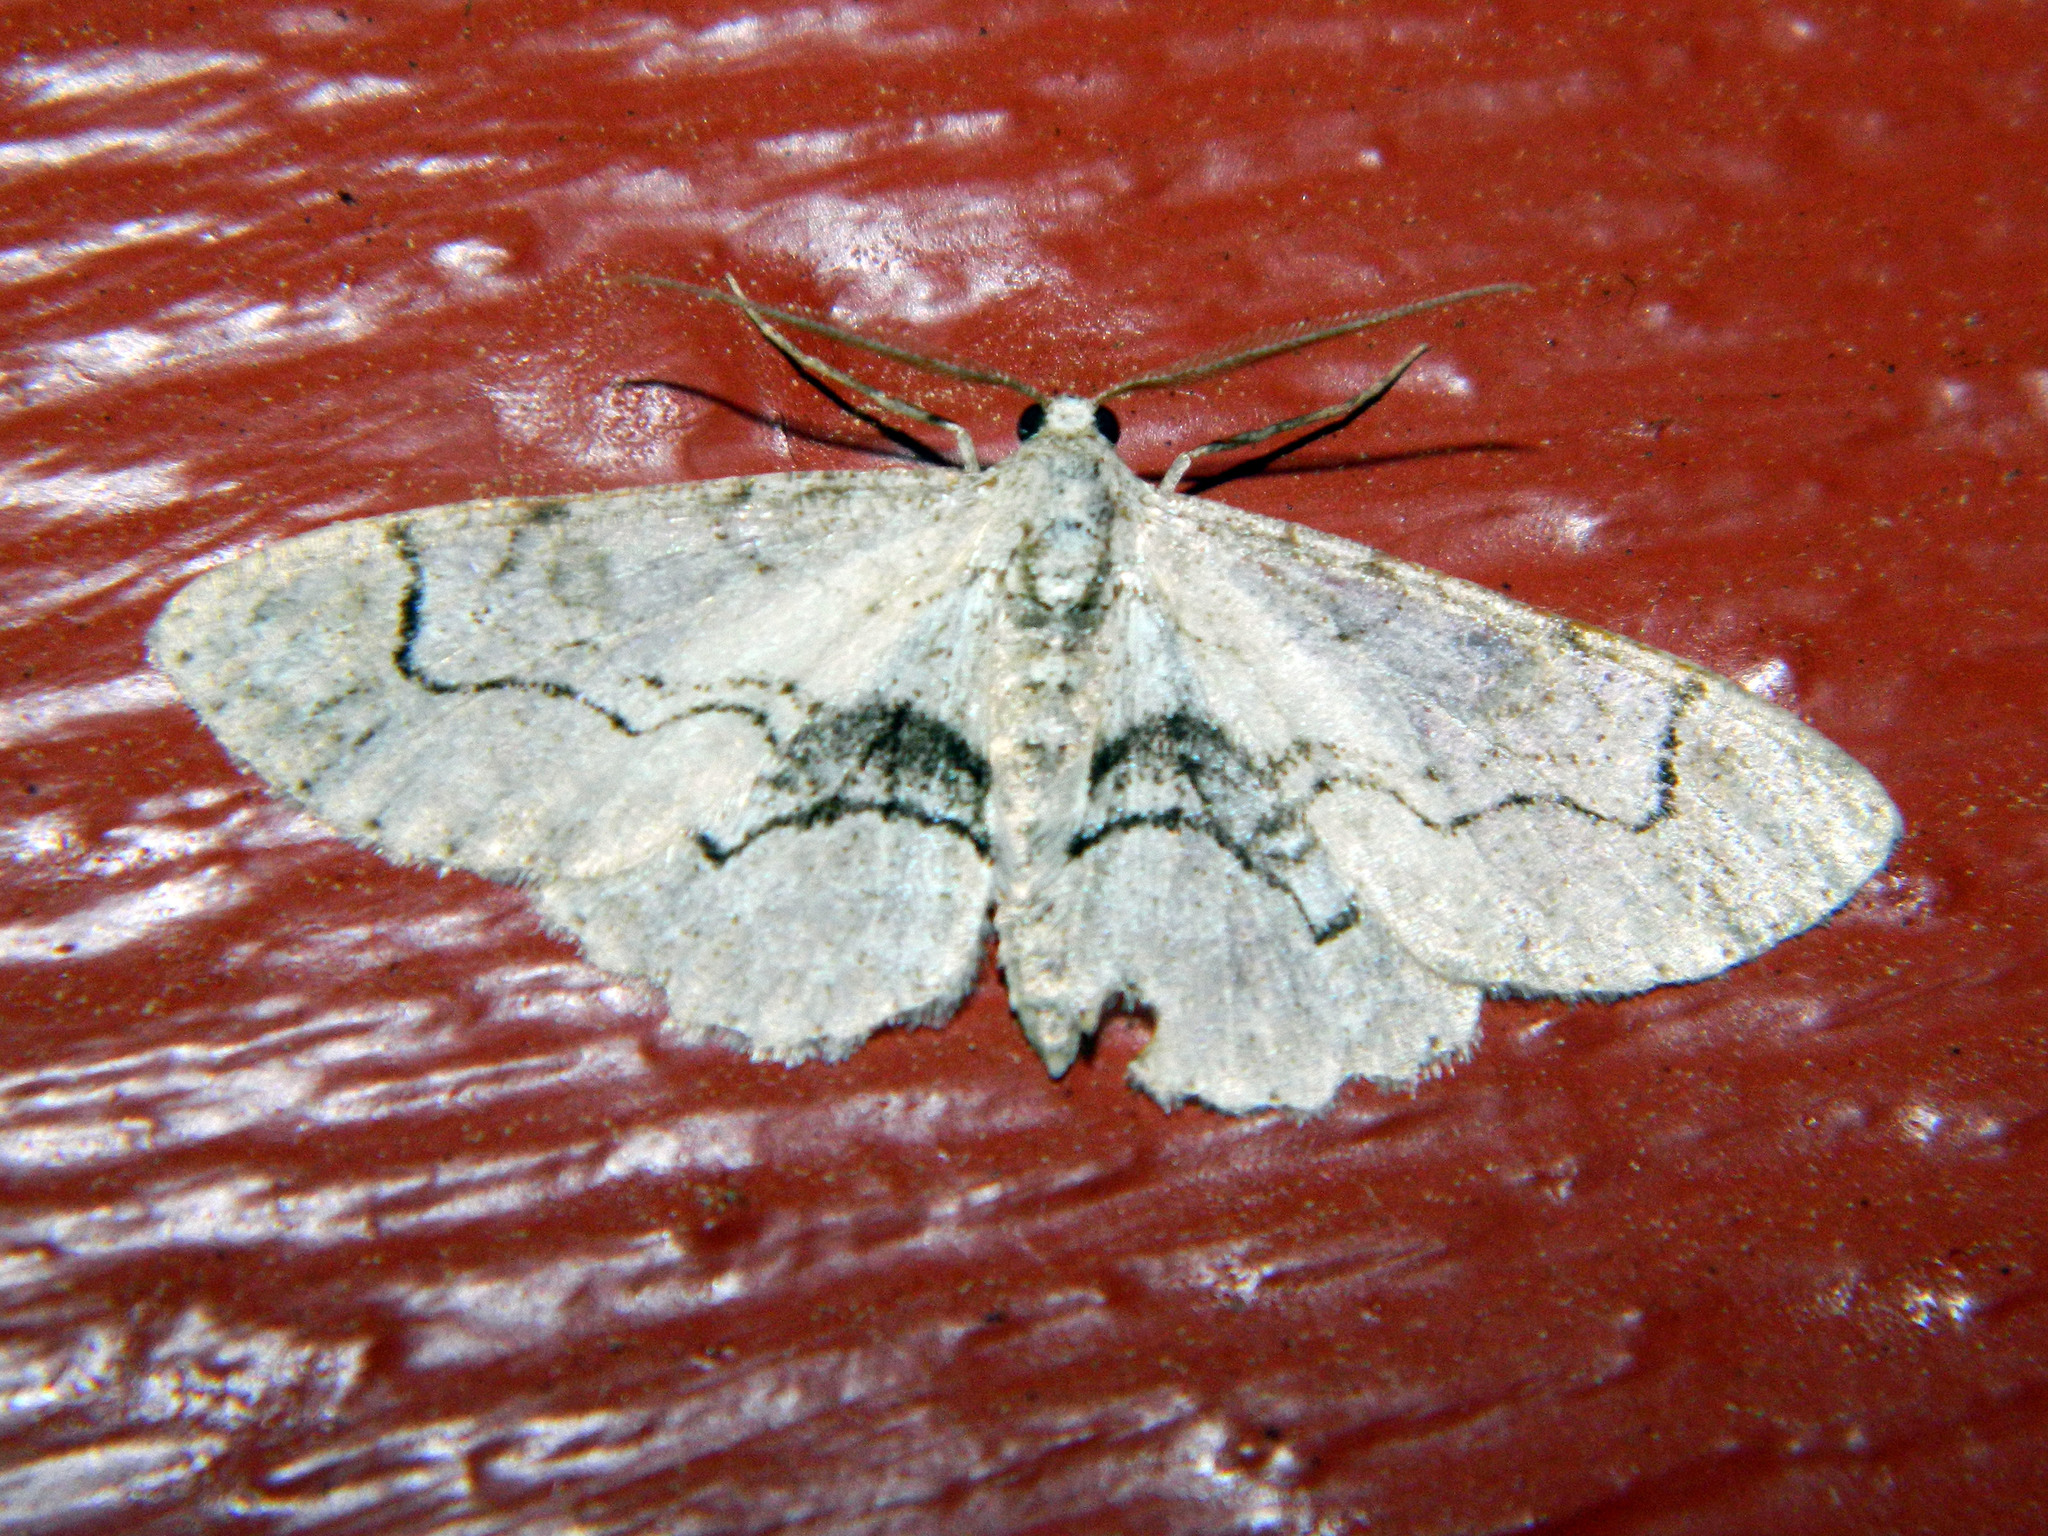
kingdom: Animalia
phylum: Arthropoda
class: Insecta
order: Lepidoptera
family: Geometridae
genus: Iridopsis
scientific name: Iridopsis larvaria
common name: Bent-line gray
